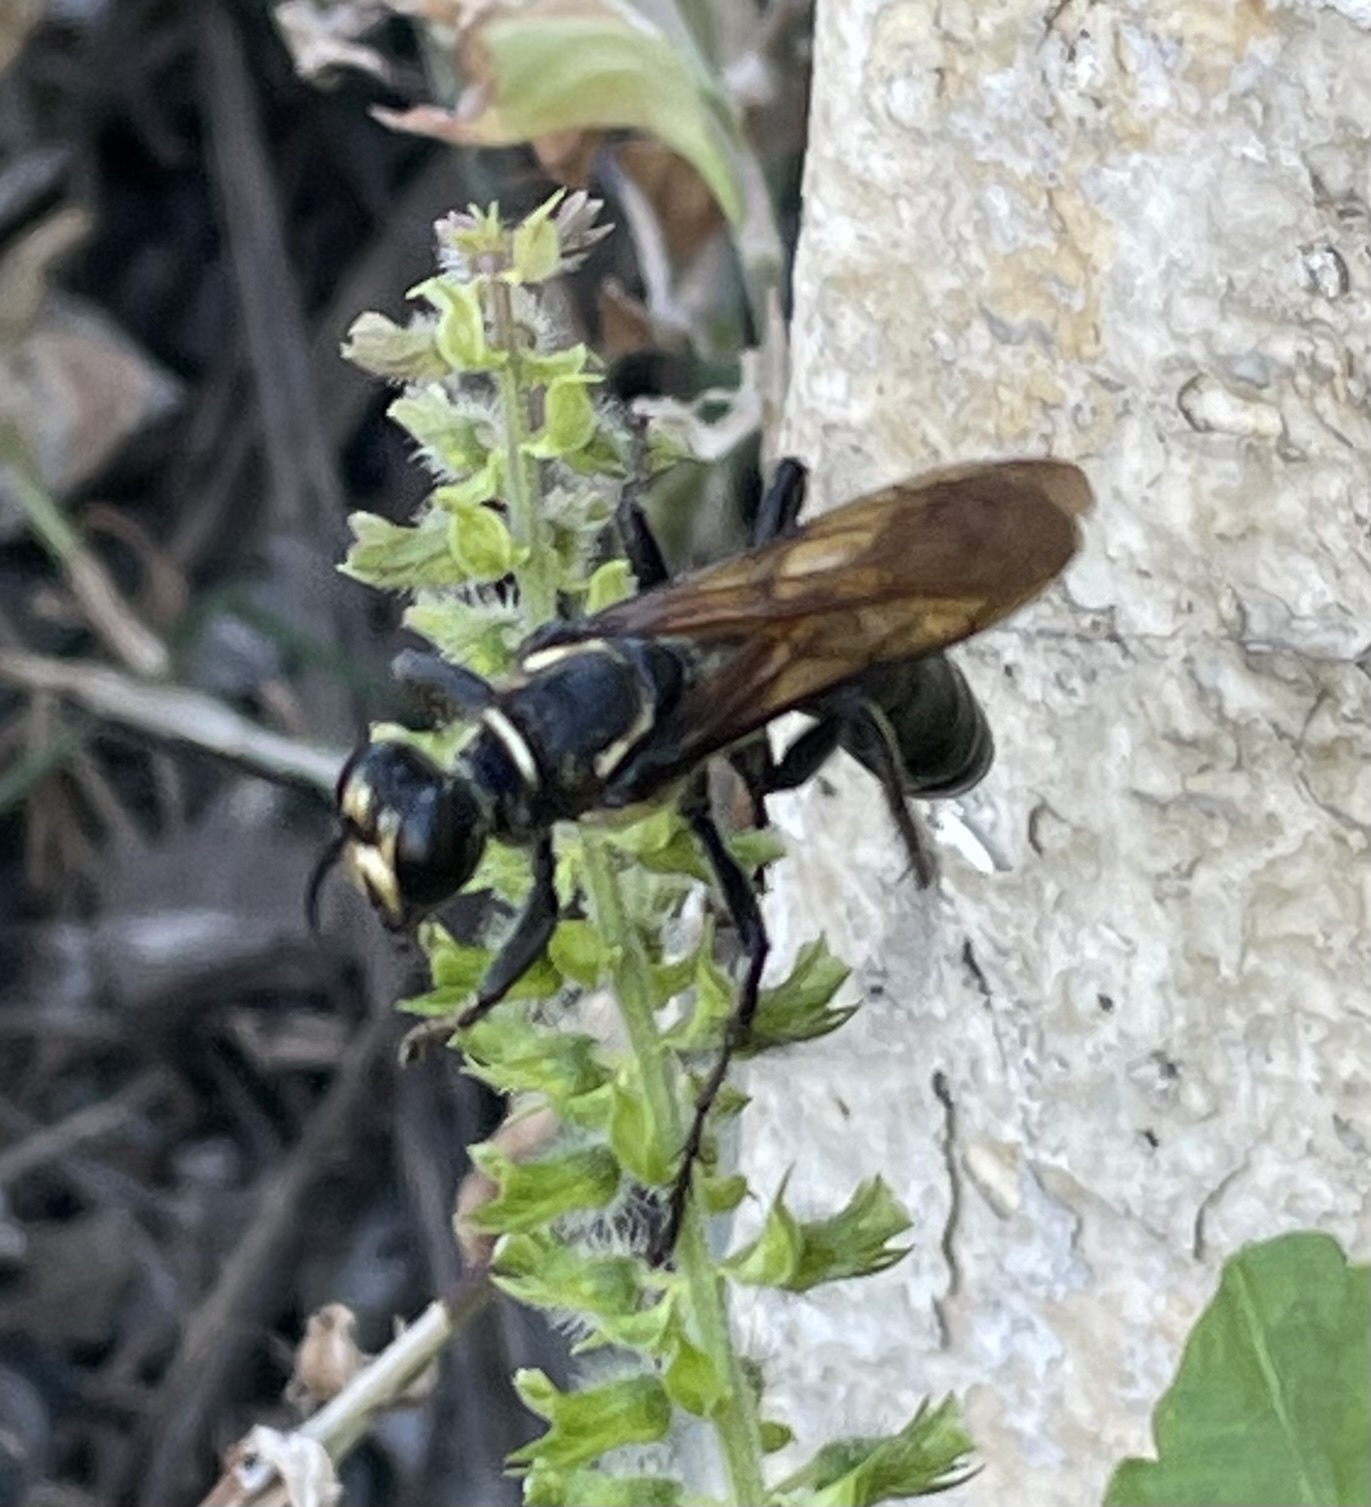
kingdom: Animalia
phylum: Arthropoda
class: Insecta
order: Hymenoptera
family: Sphecidae
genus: Sphex
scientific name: Sphex habenus
